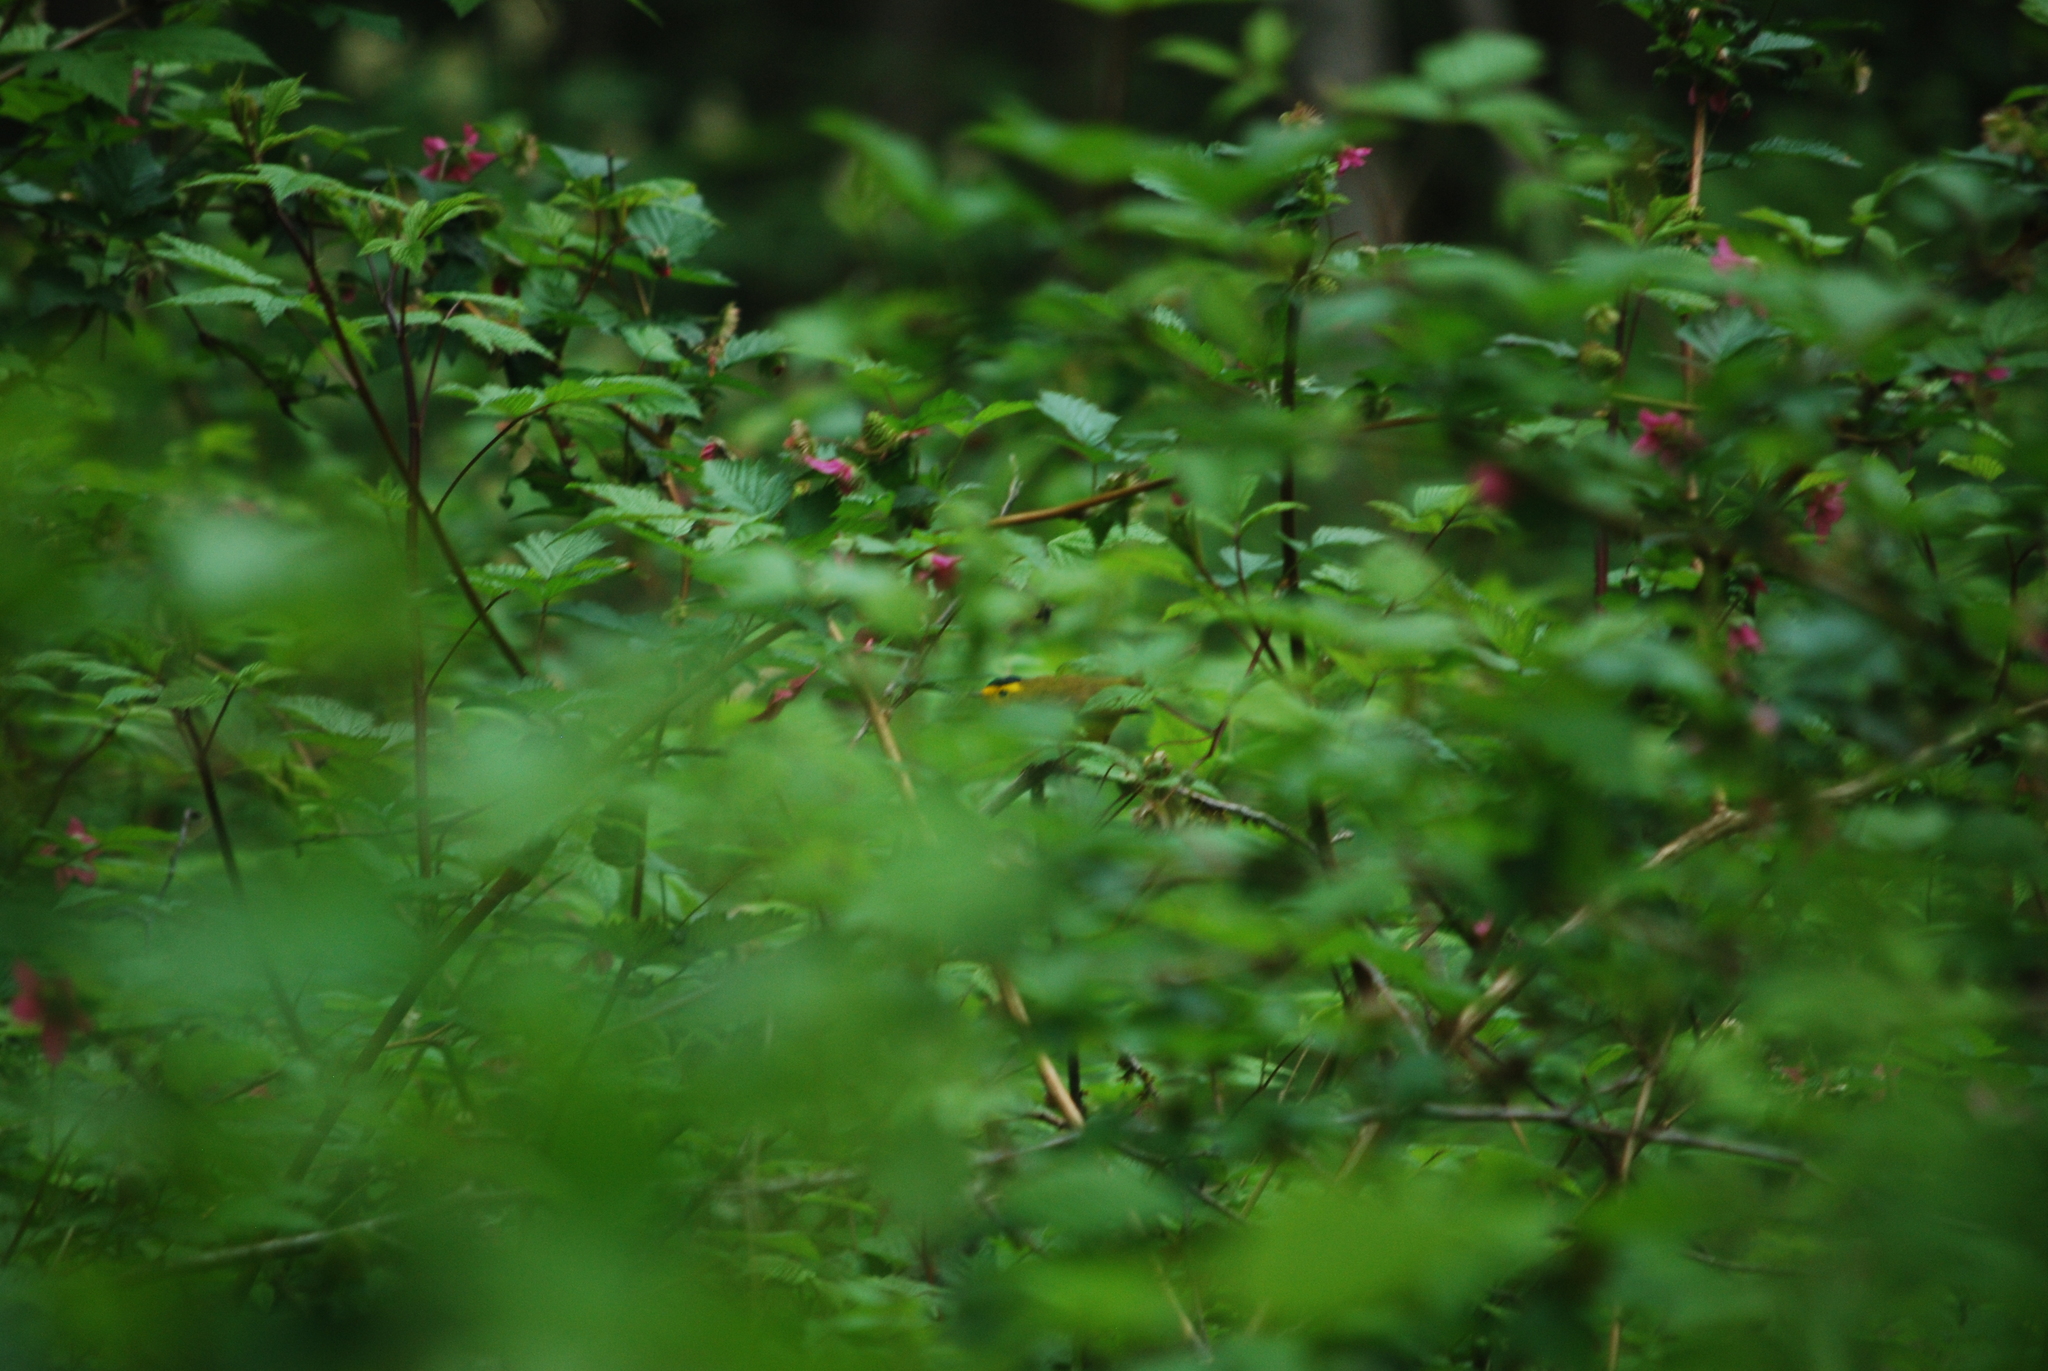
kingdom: Animalia
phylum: Chordata
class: Aves
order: Passeriformes
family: Parulidae
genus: Cardellina
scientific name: Cardellina pusilla
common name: Wilson's warbler
